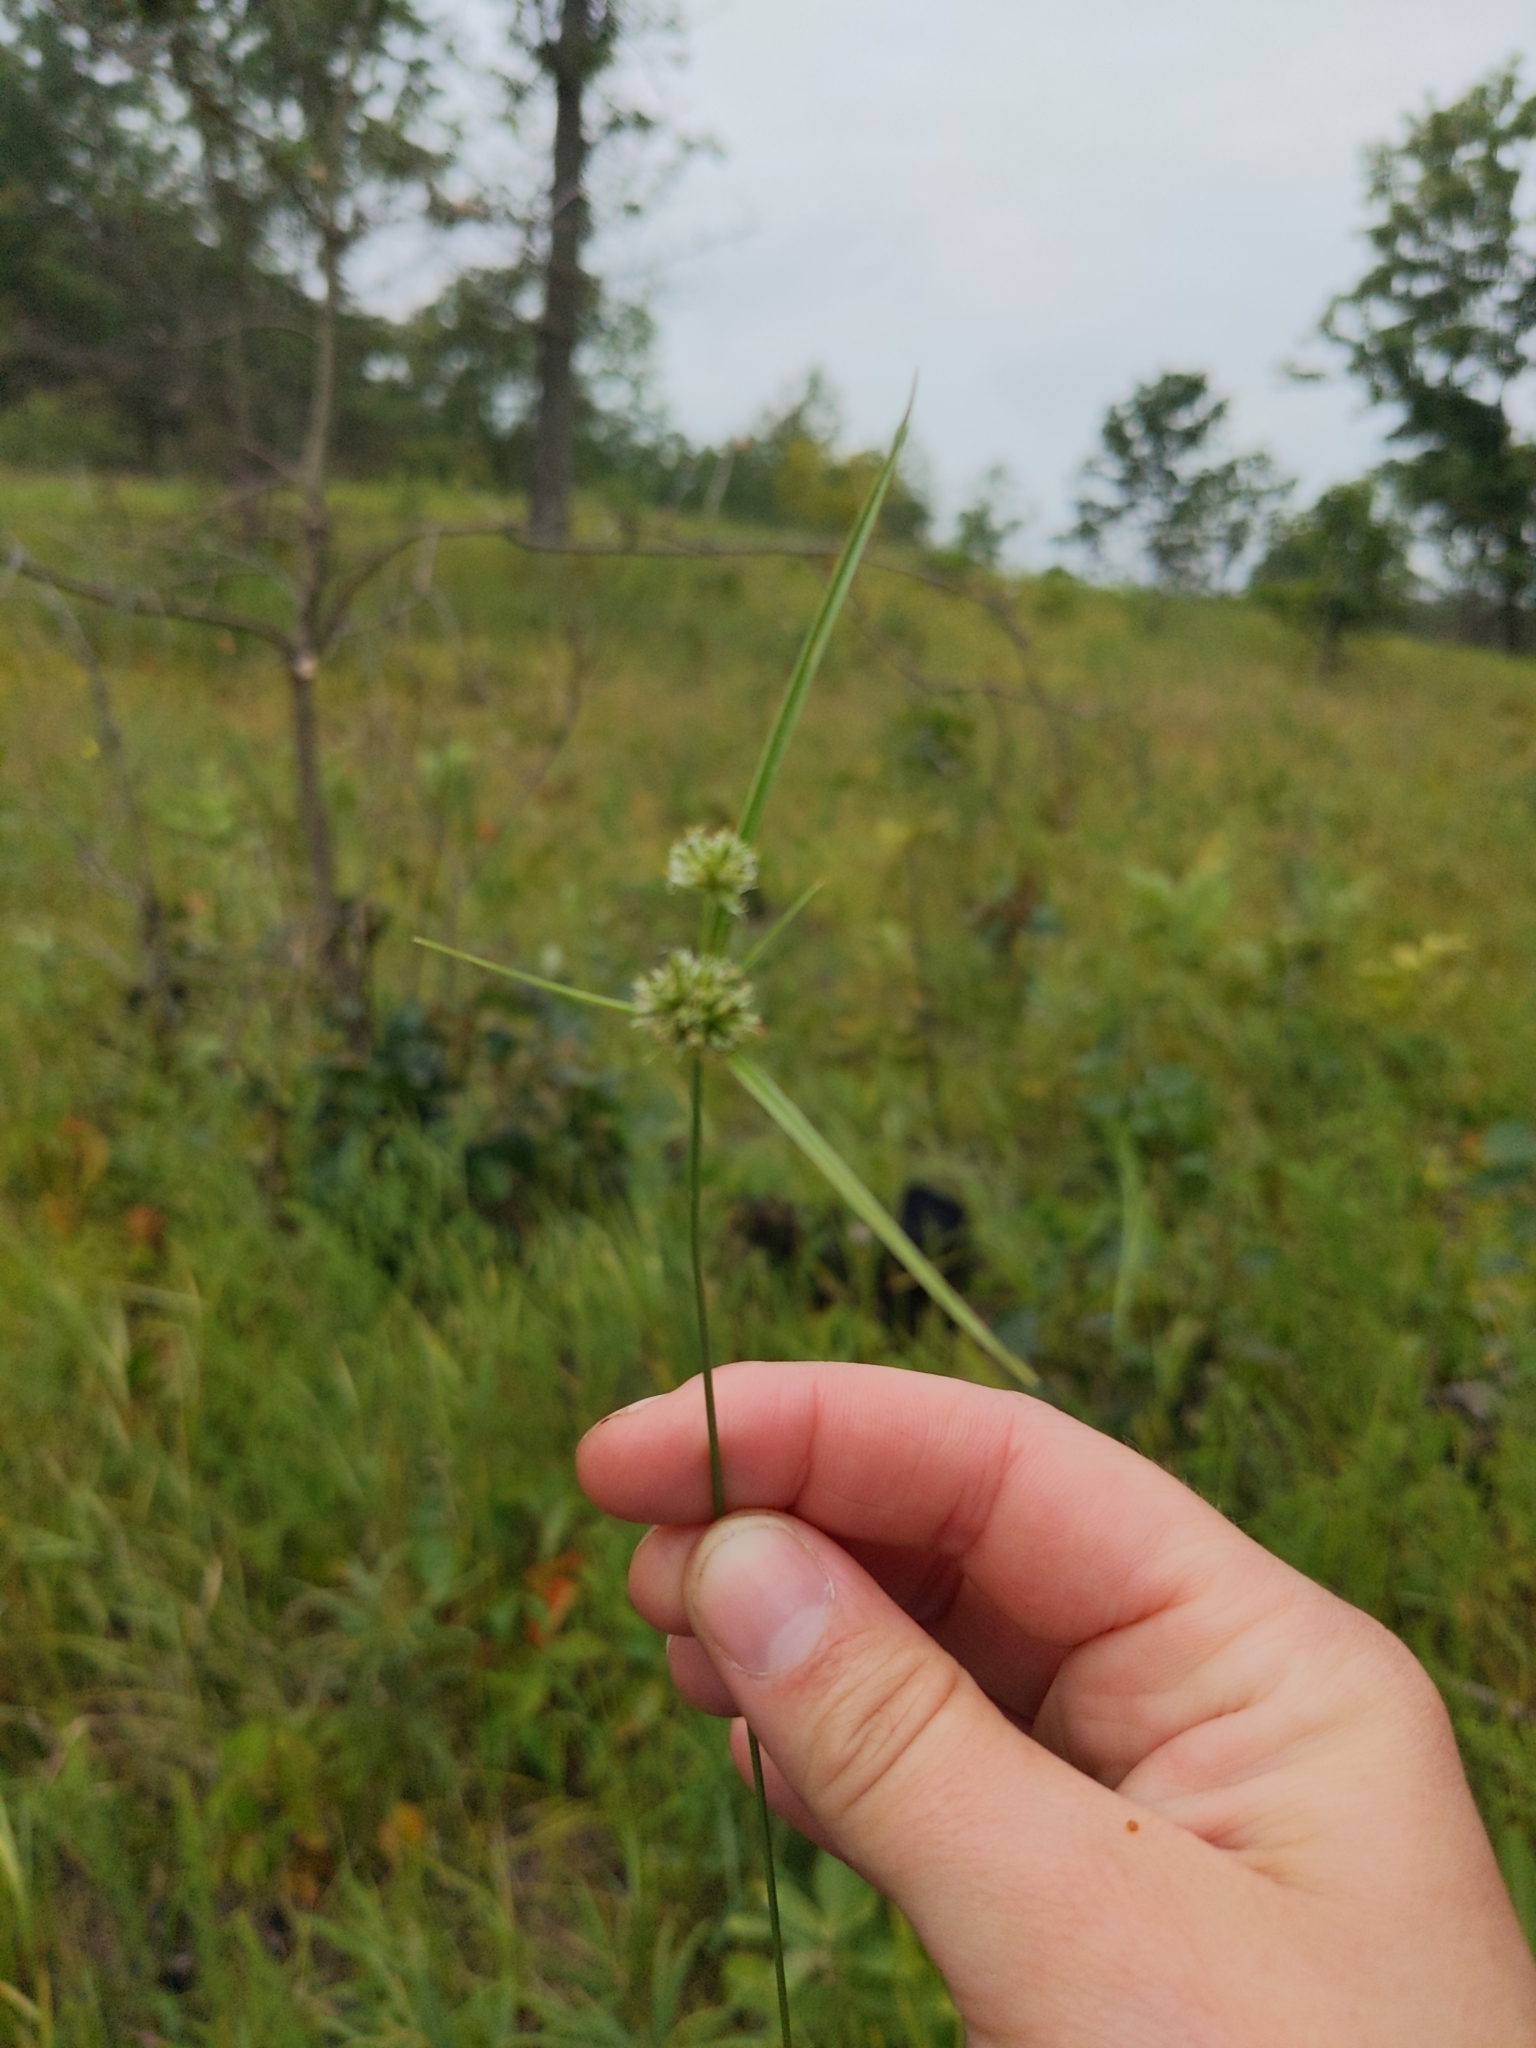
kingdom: Plantae
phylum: Tracheophyta
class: Liliopsida
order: Poales
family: Cyperaceae
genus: Cyperus
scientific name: Cyperus lupulinus
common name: Great plains flatsedge
